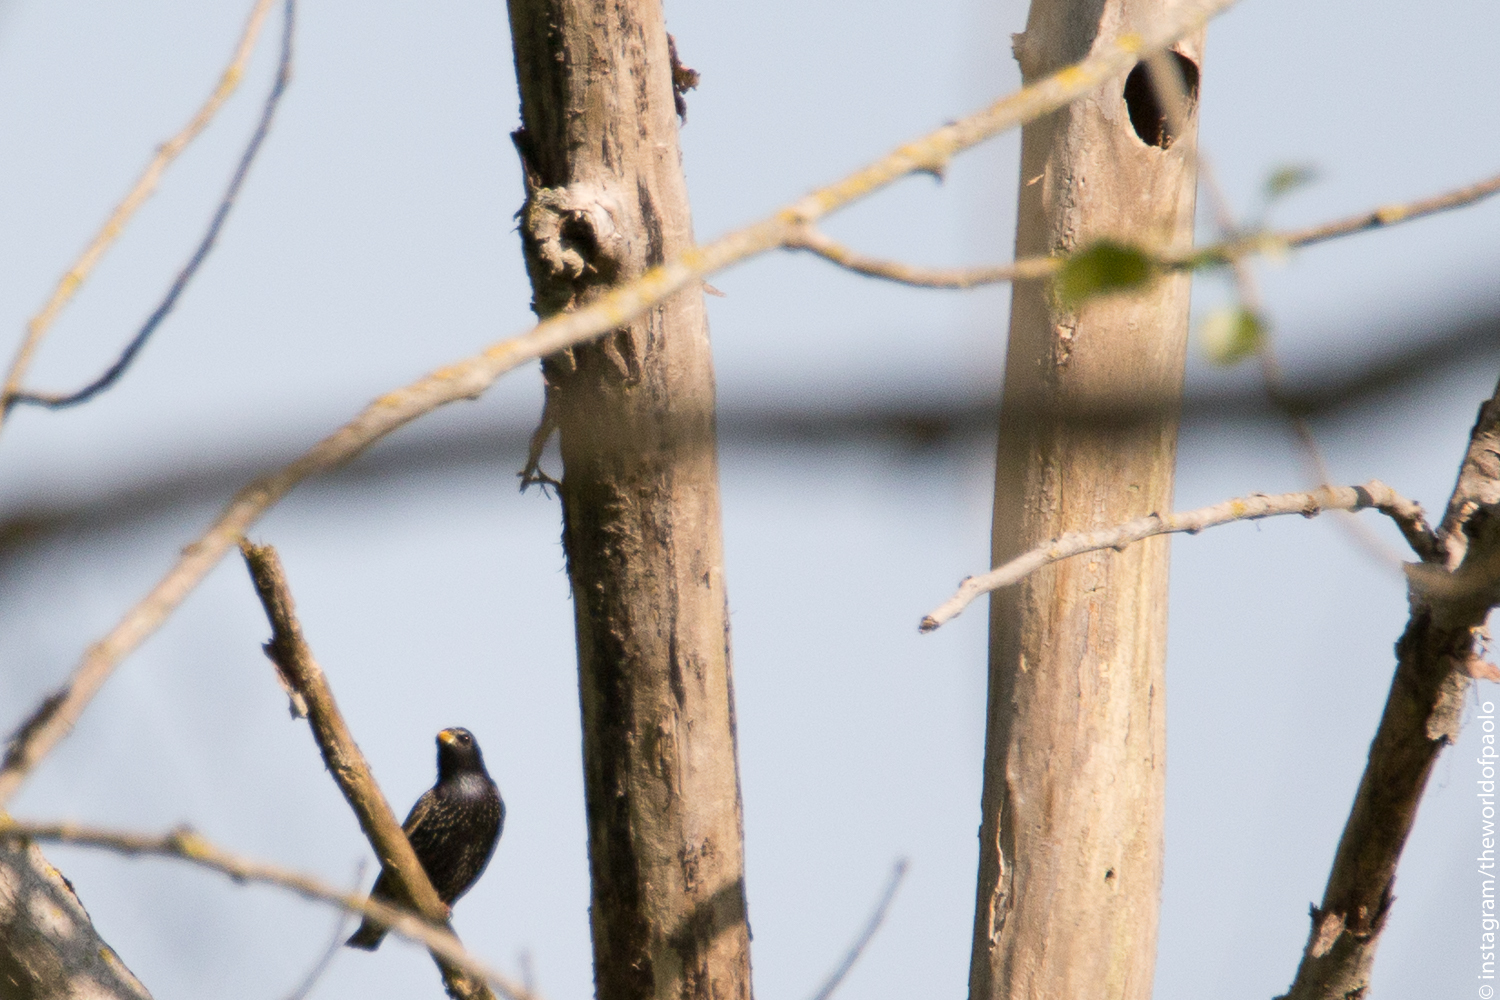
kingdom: Animalia
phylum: Chordata
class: Aves
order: Passeriformes
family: Sturnidae
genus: Sturnus
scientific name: Sturnus vulgaris
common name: Common starling
